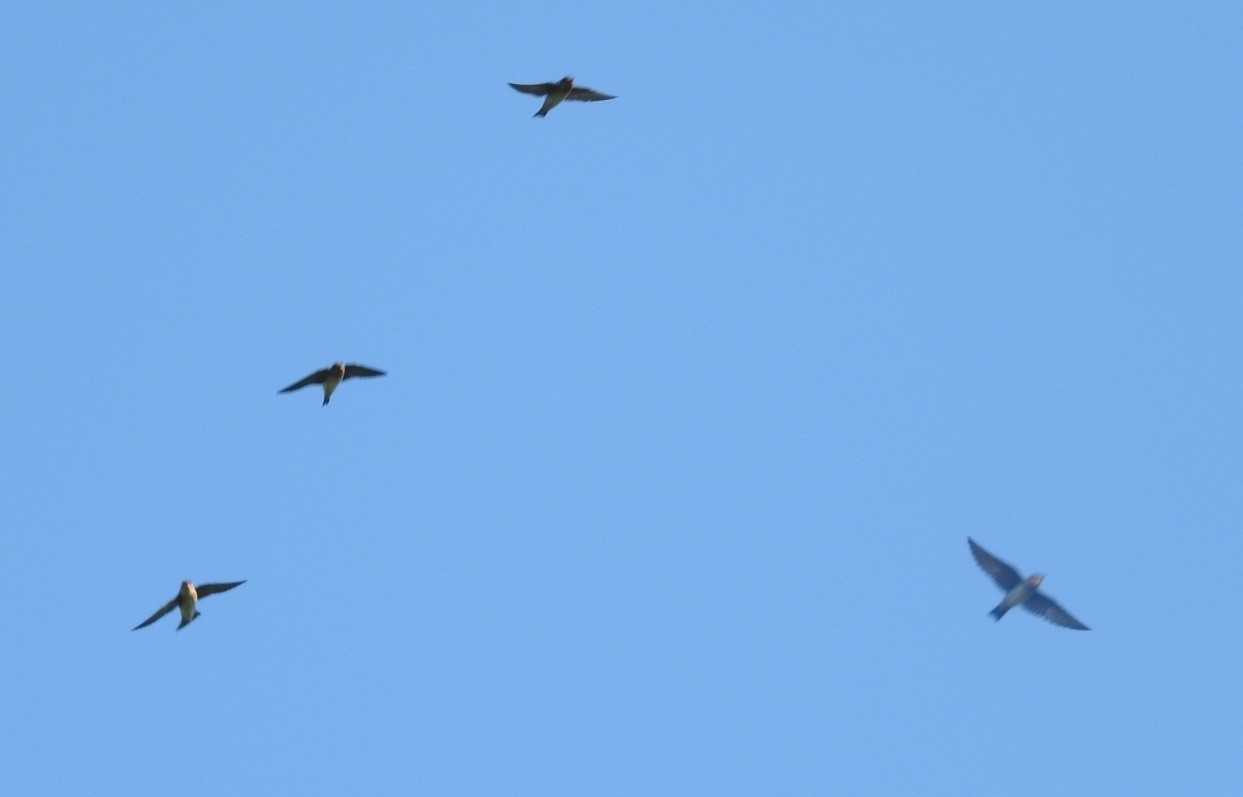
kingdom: Animalia
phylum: Chordata
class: Aves
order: Passeriformes
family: Hirundinidae
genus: Petrochelidon
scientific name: Petrochelidon fulva
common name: Cave swallow
